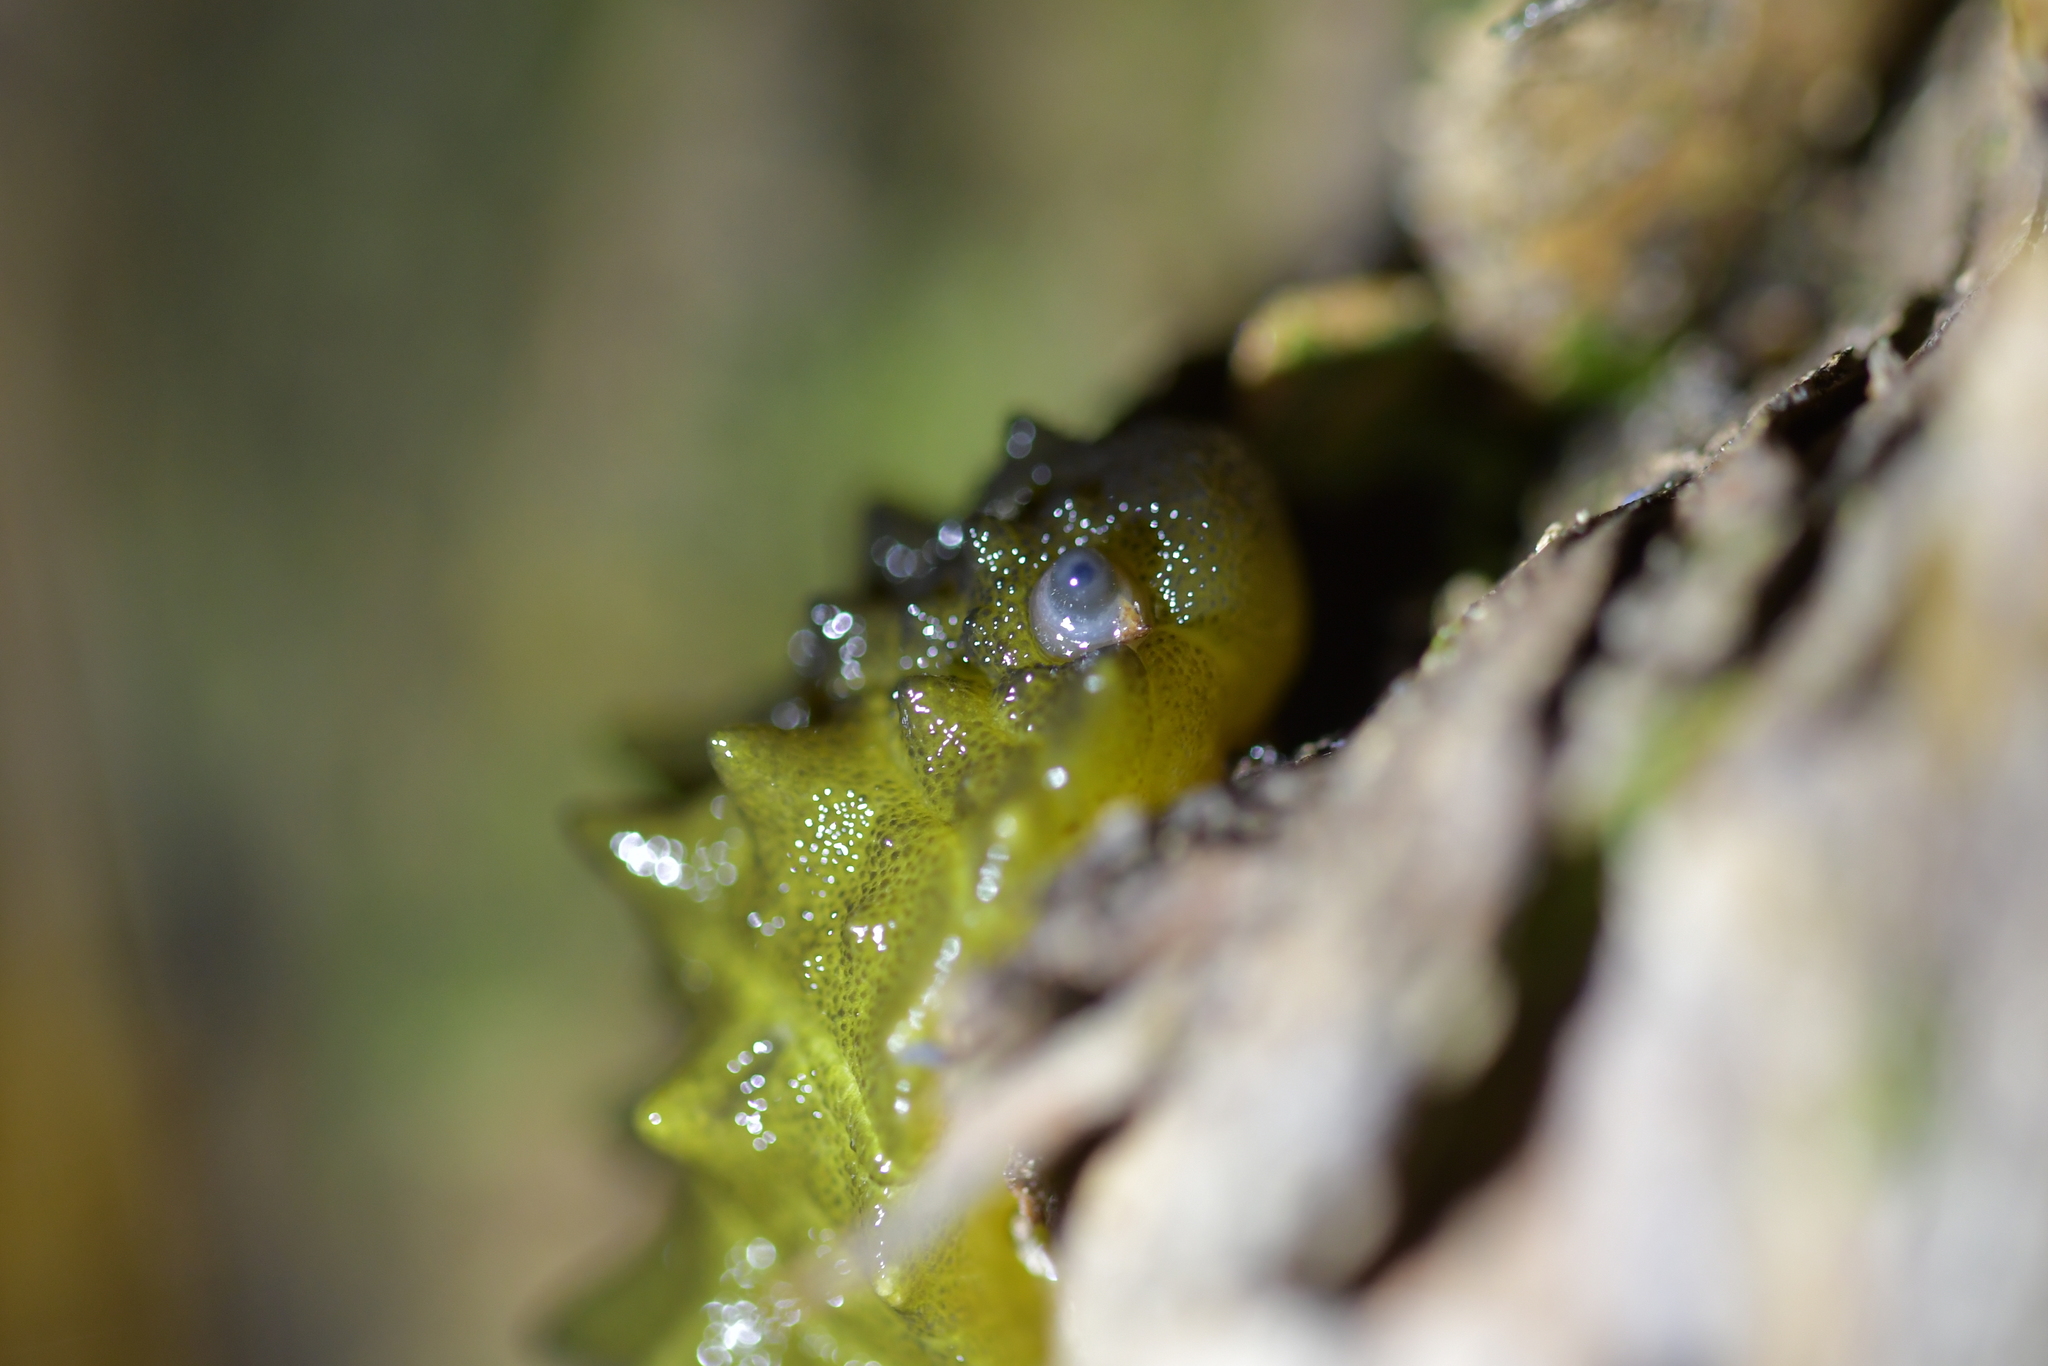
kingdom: Animalia
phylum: Mollusca
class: Gastropoda
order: Stylommatophora
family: Athoracophoridae
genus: Athoracophorus
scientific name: Athoracophorus papillatus
